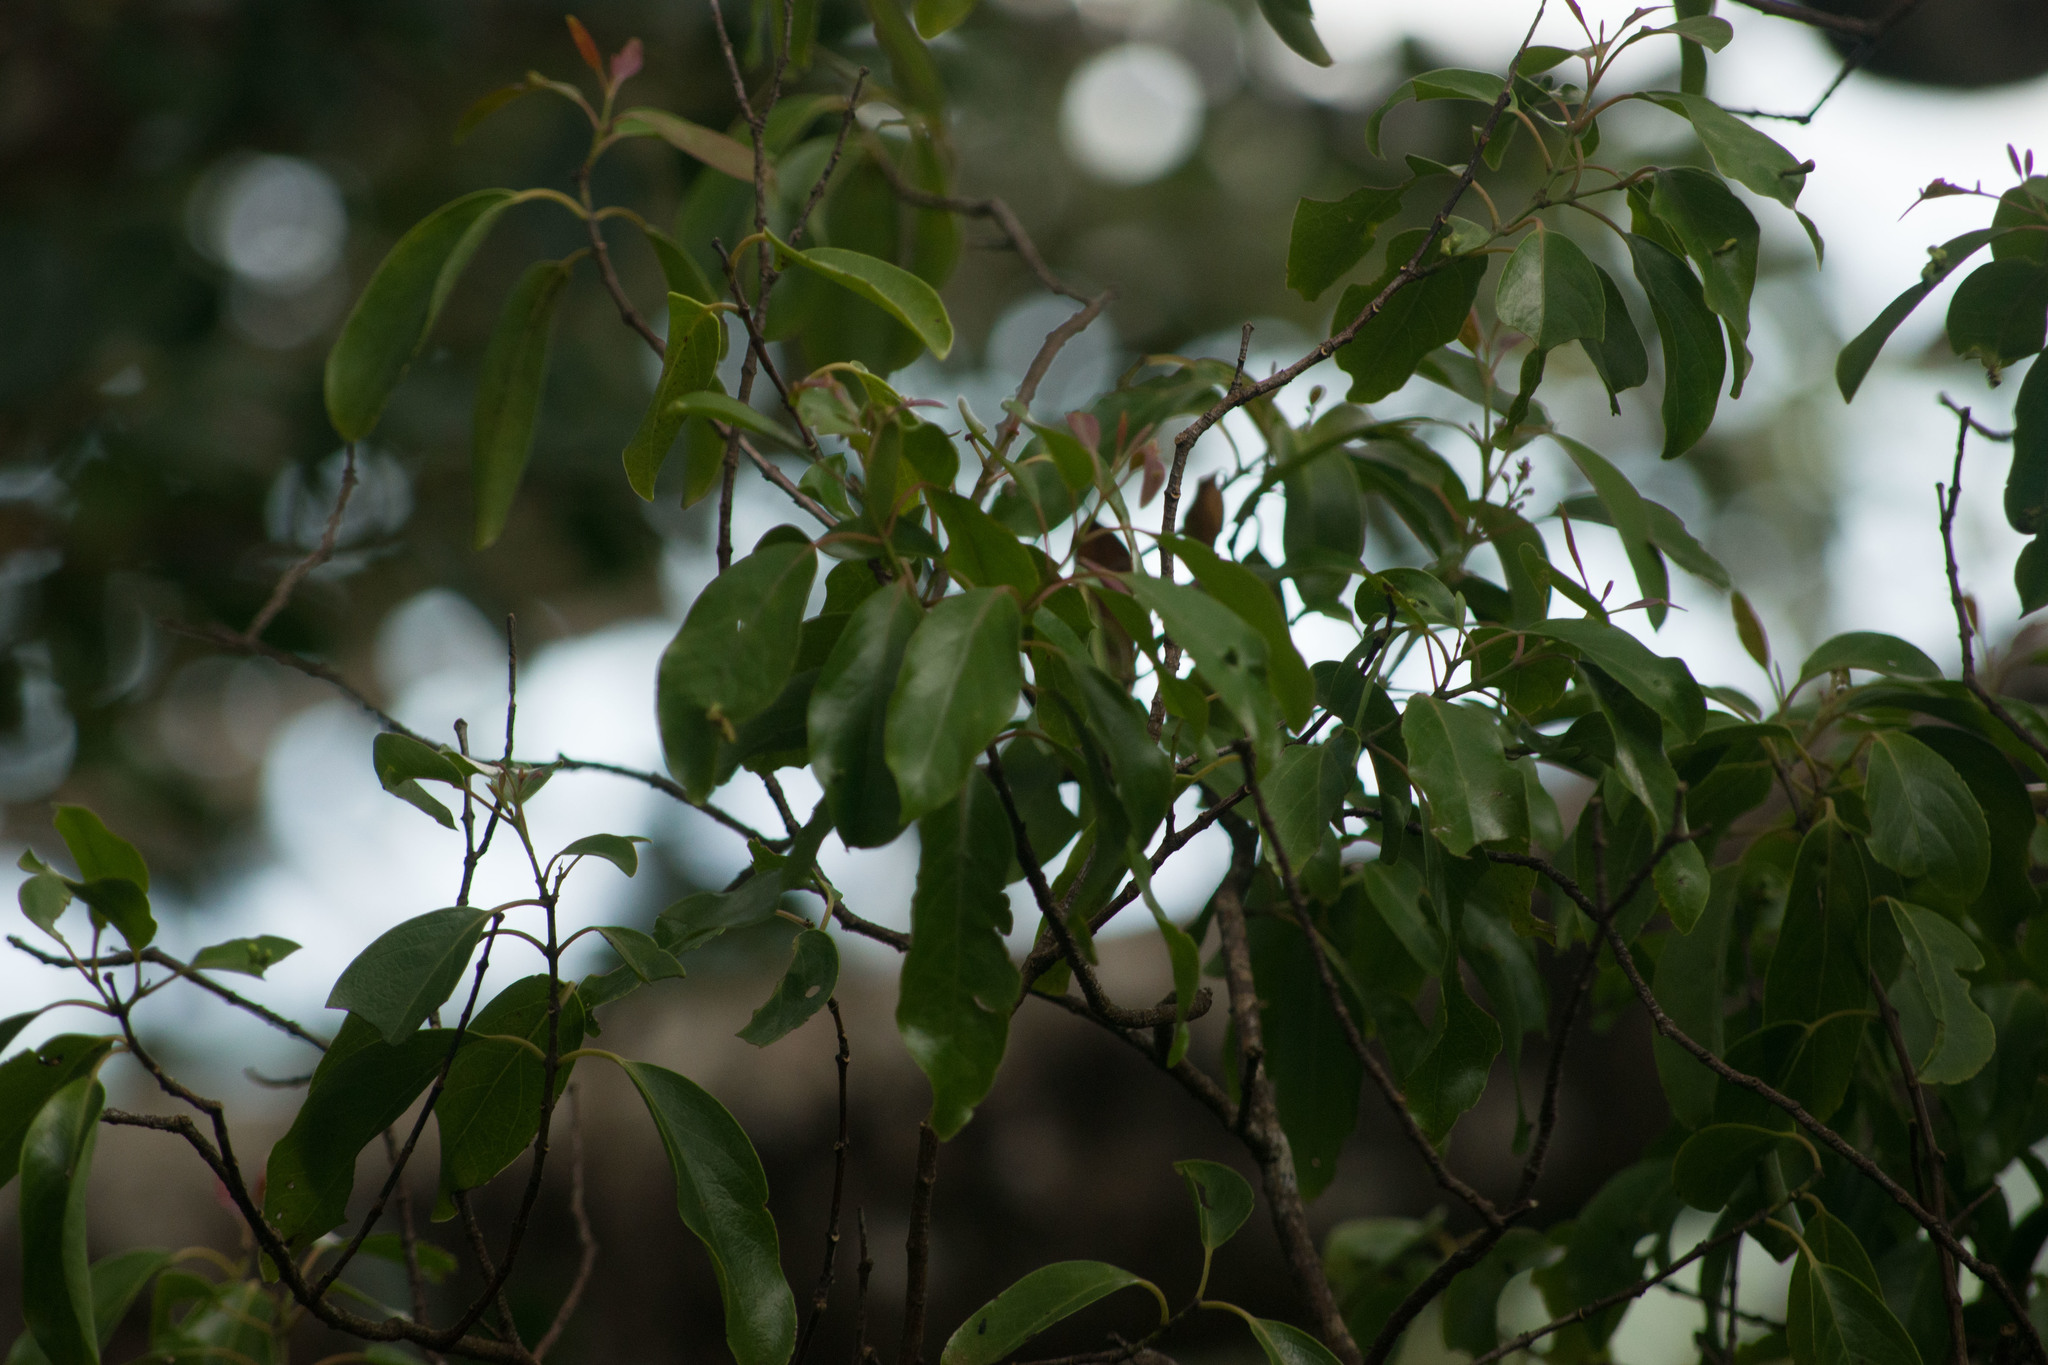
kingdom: Plantae
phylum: Tracheophyta
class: Magnoliopsida
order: Santalales
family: Santalaceae
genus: Santalum
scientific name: Santalum freycinetianum
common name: Lanai sandalwood
